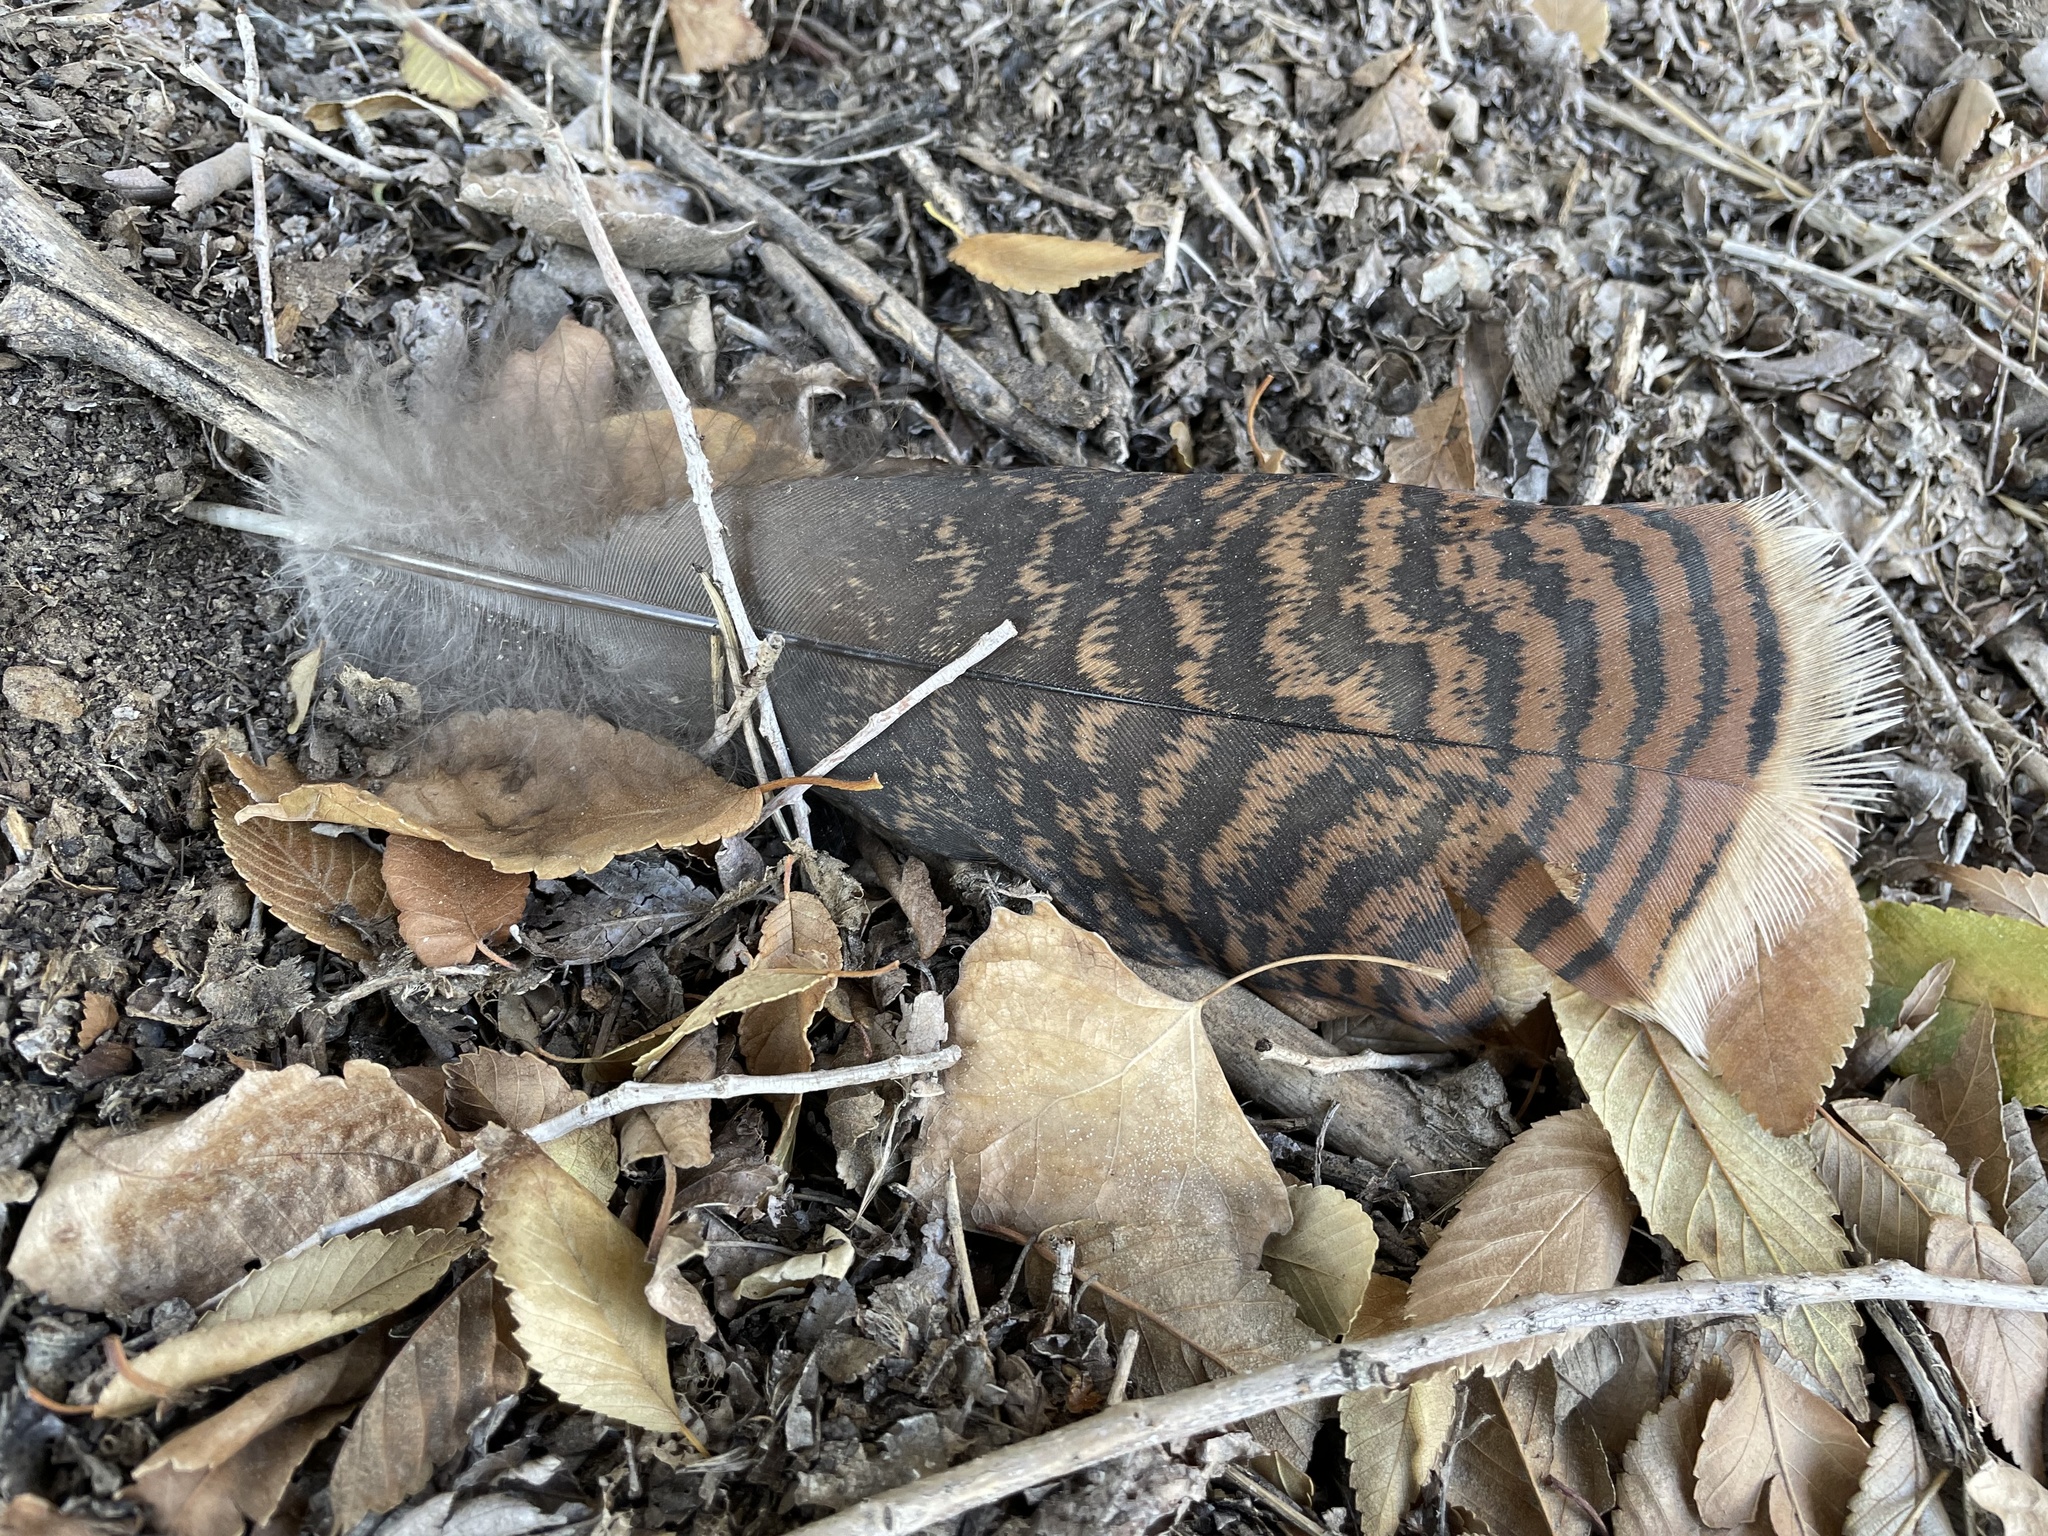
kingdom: Animalia
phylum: Chordata
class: Aves
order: Galliformes
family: Phasianidae
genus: Meleagris
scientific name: Meleagris gallopavo
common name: Wild turkey
